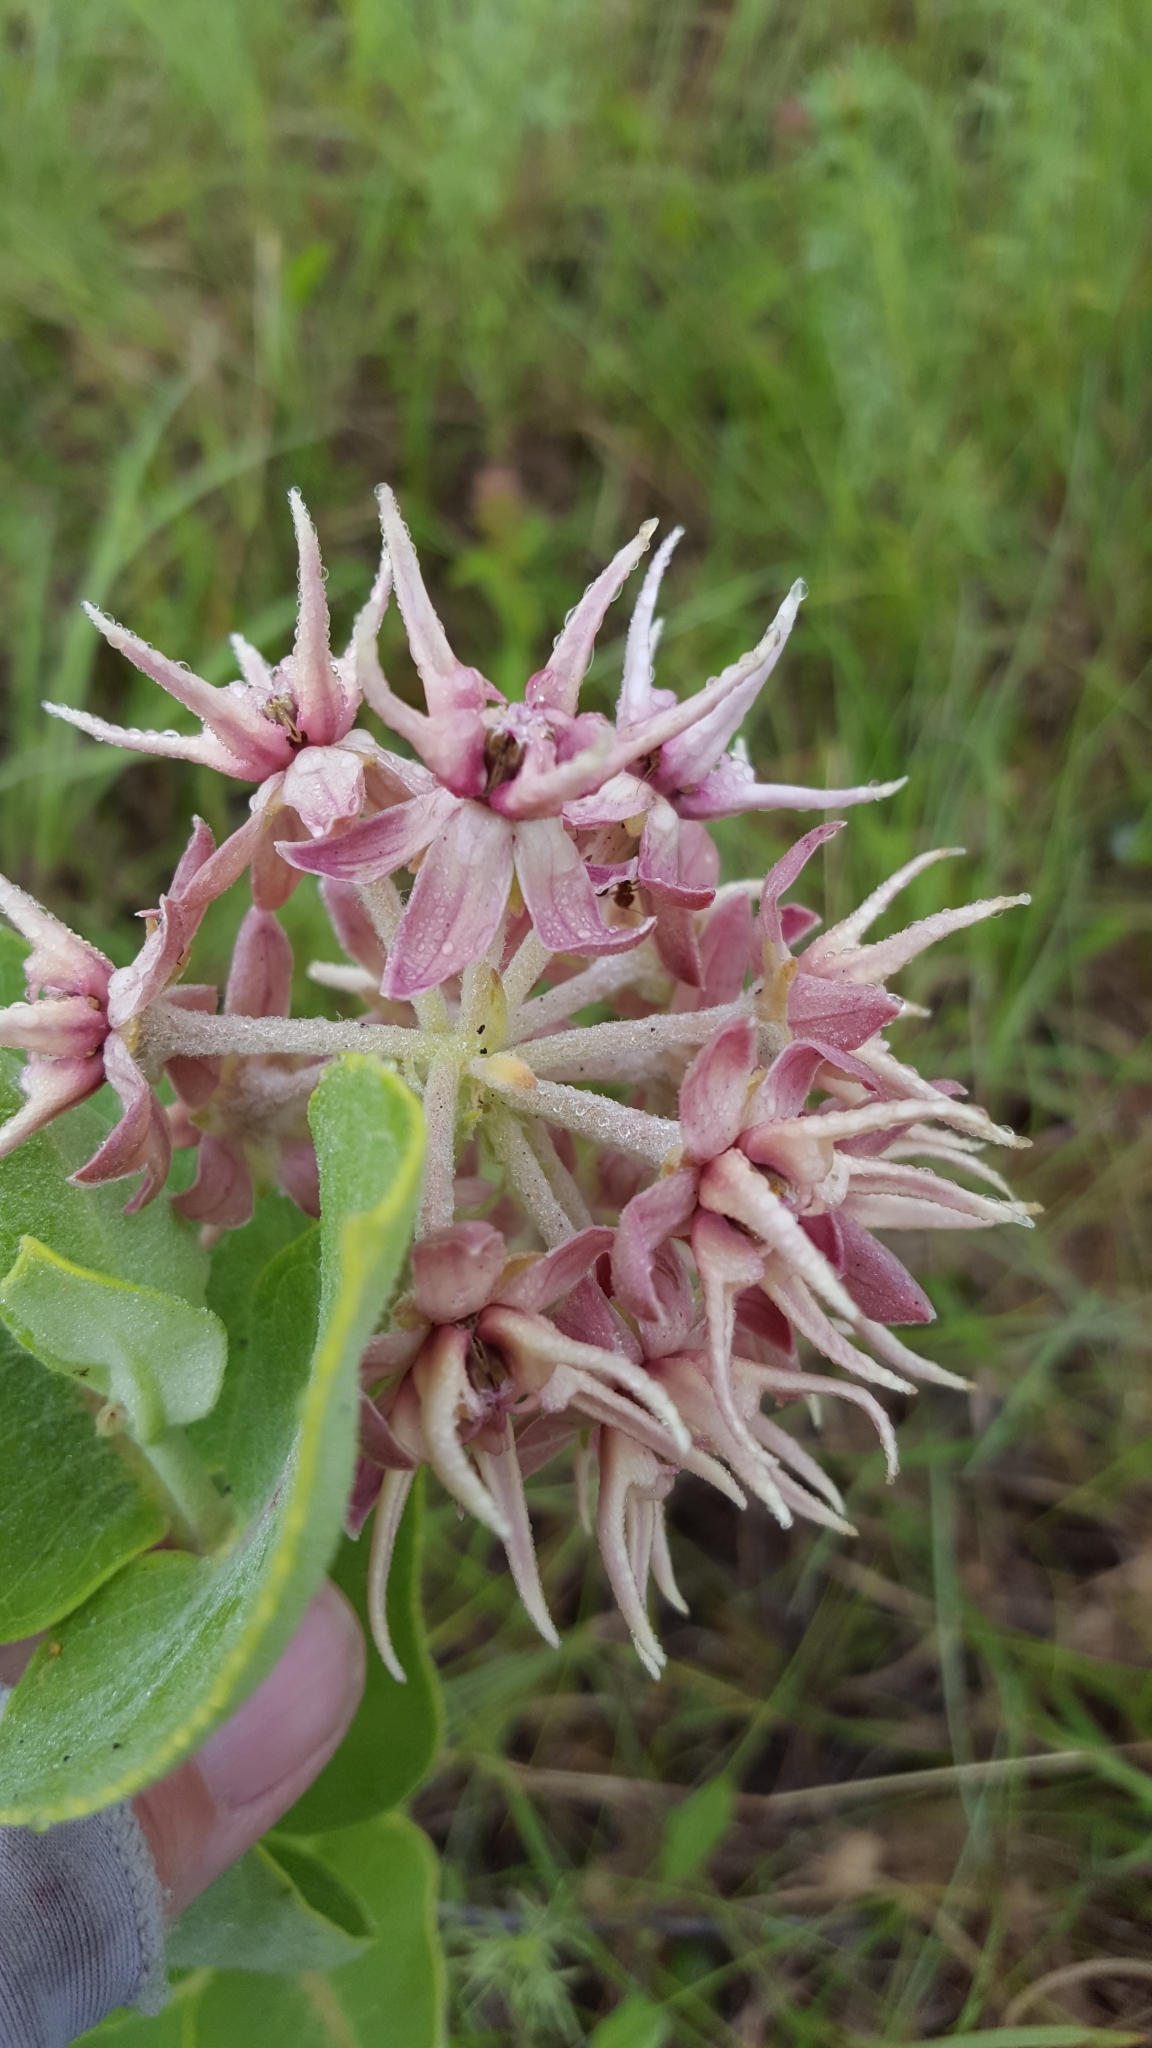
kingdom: Plantae
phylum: Tracheophyta
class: Magnoliopsida
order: Gentianales
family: Apocynaceae
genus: Asclepias
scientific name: Asclepias speciosa
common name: Showy milkweed
